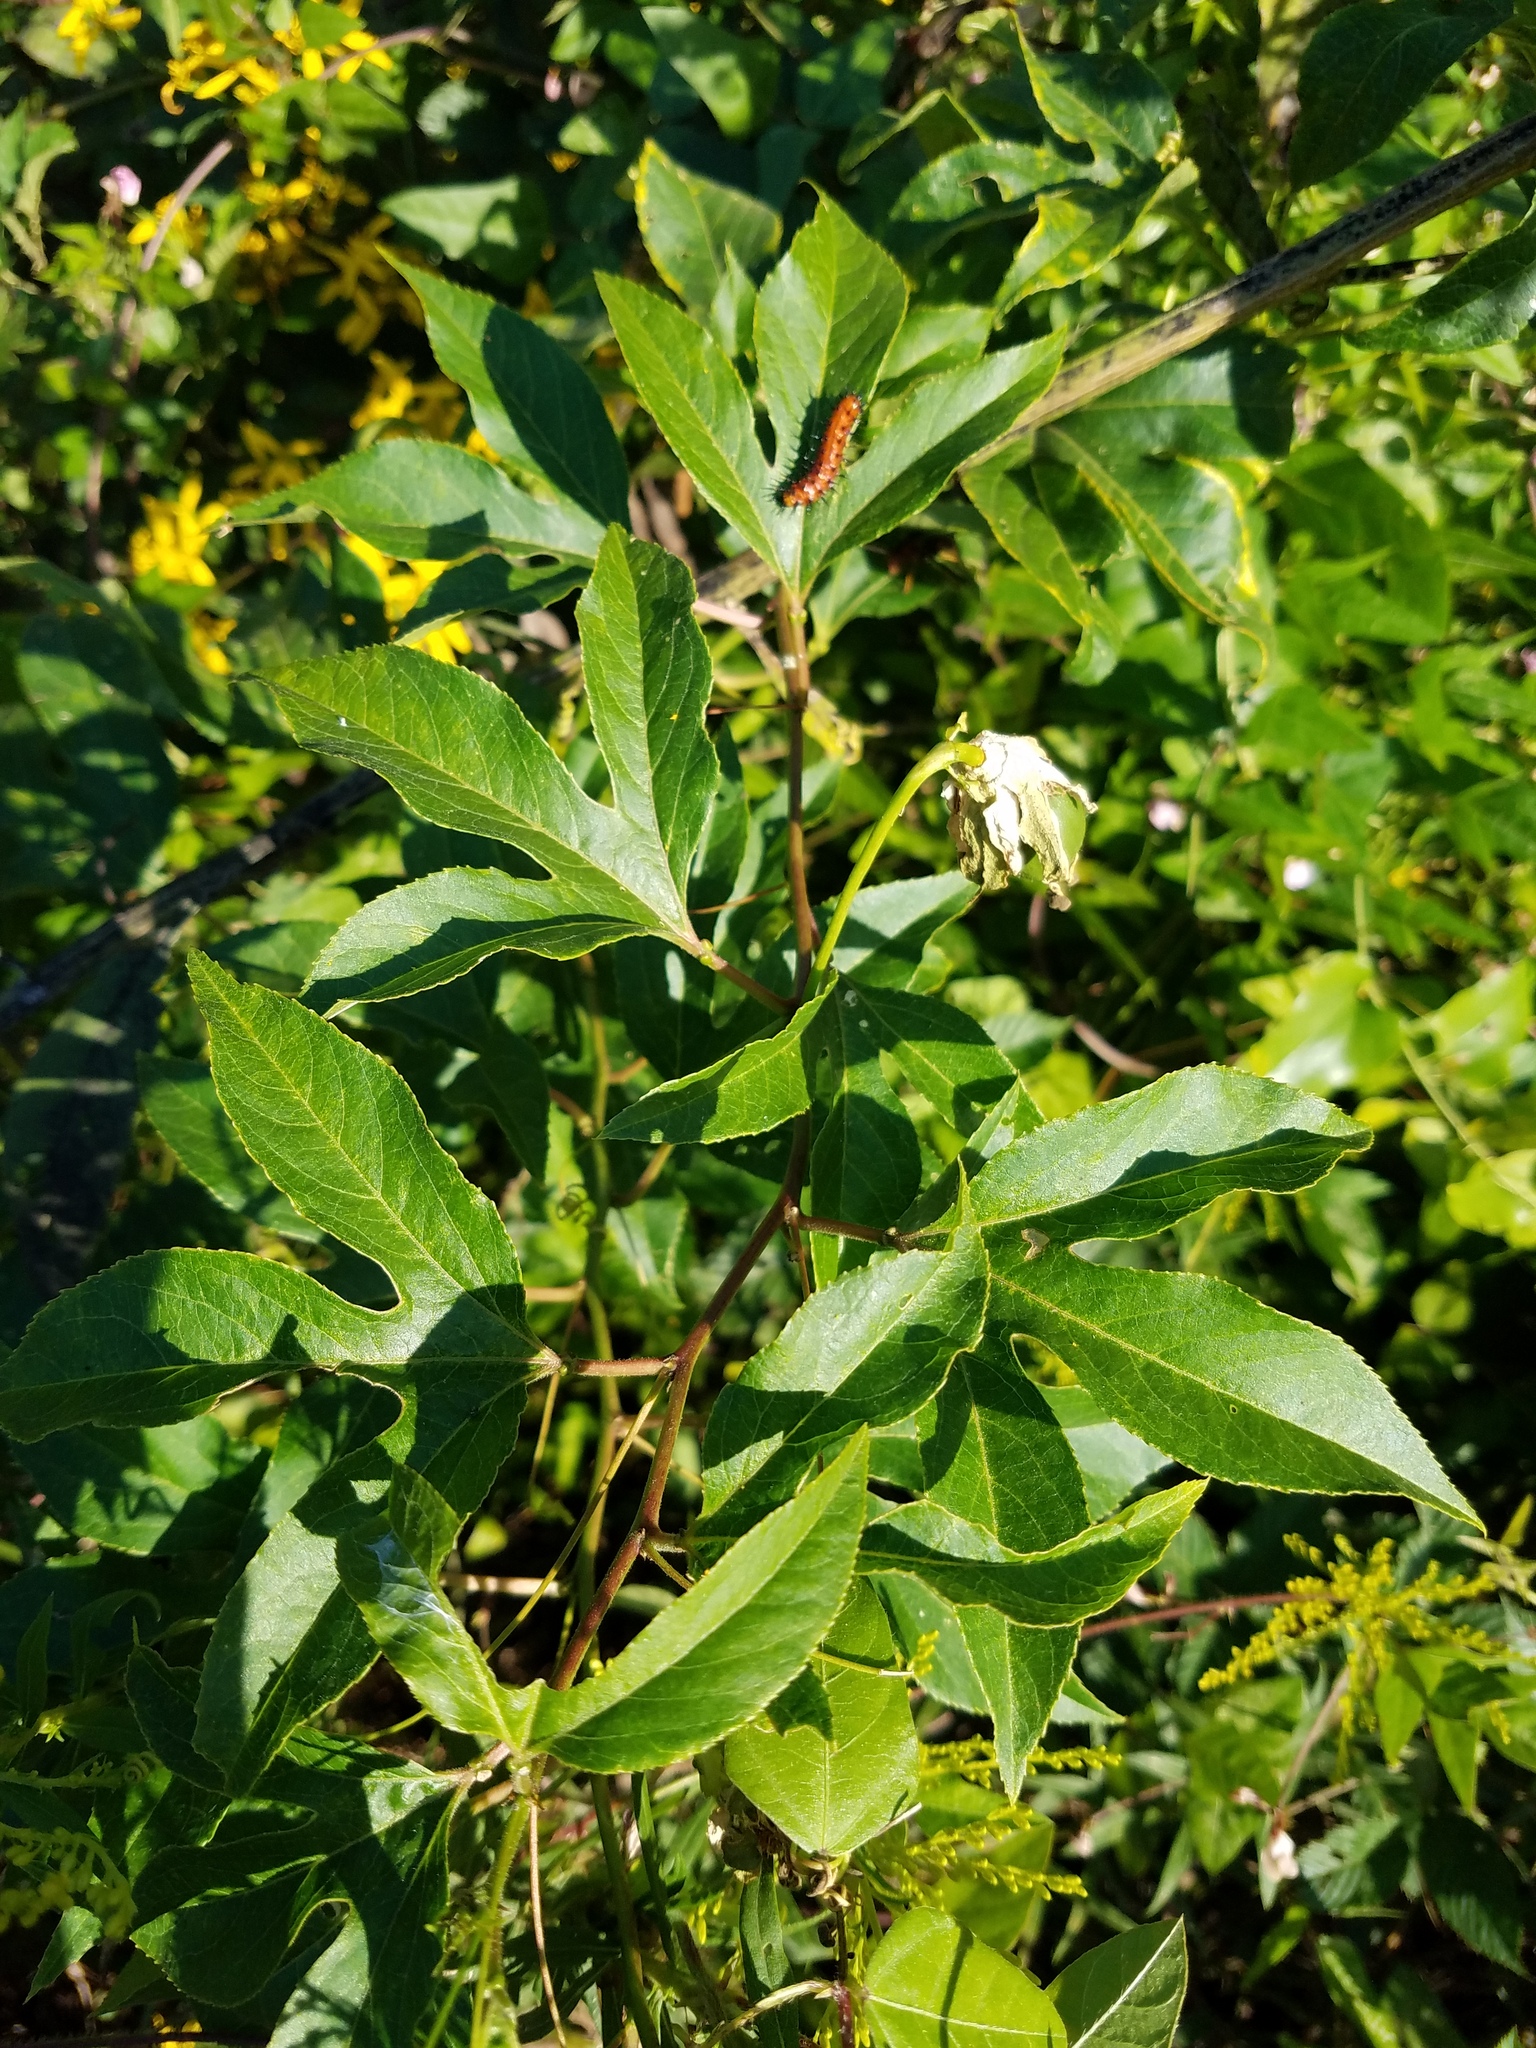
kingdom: Plantae
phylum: Tracheophyta
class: Magnoliopsida
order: Malpighiales
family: Passifloraceae
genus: Passiflora
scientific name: Passiflora incarnata
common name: Apricot-vine
